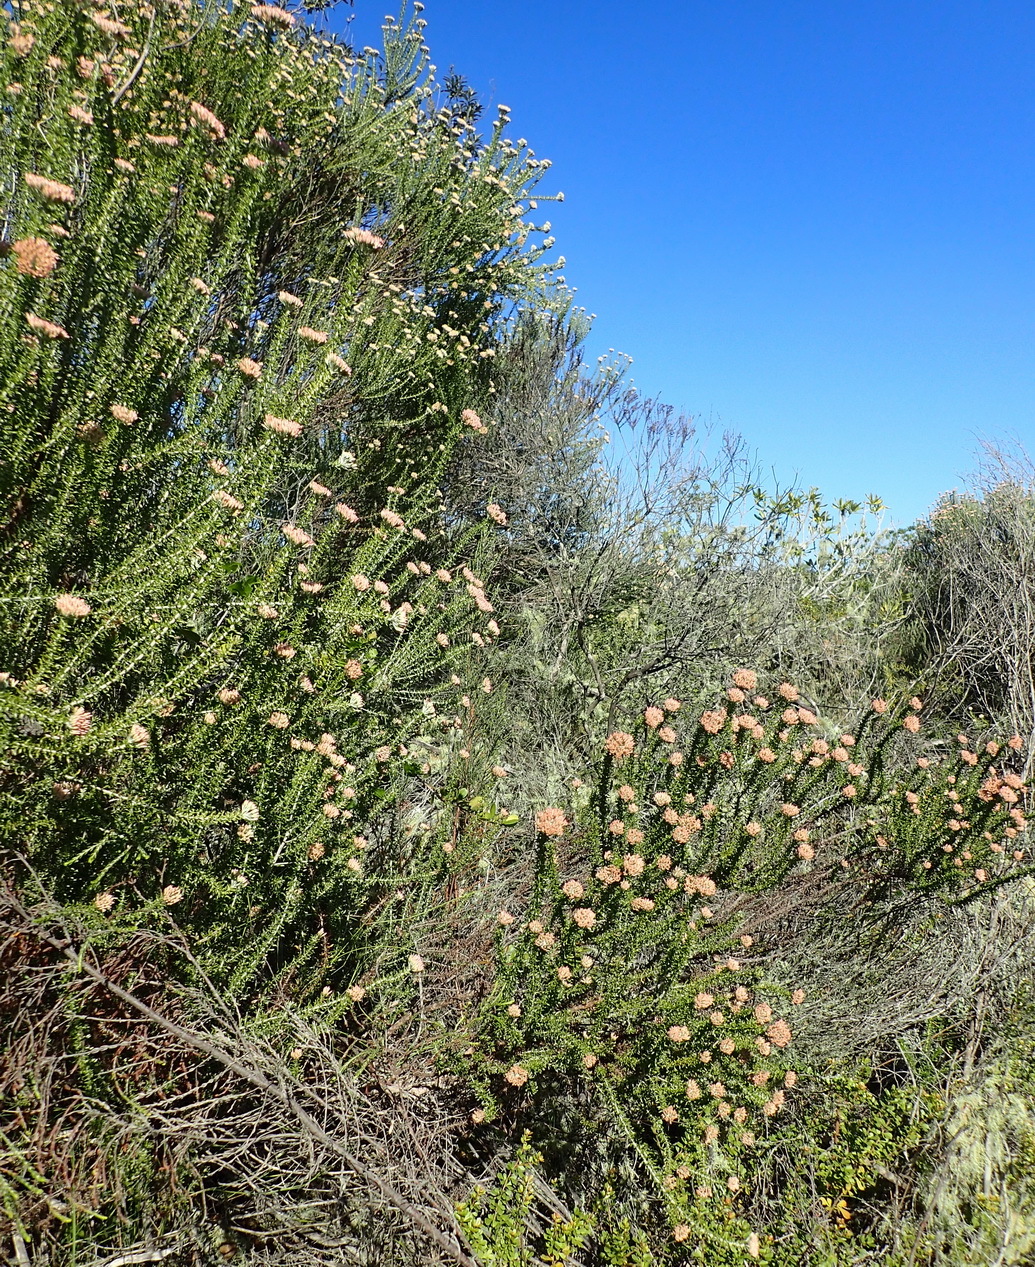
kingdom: Plantae
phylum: Tracheophyta
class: Magnoliopsida
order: Asterales
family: Asteraceae
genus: Metalasia
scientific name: Metalasia muricata
